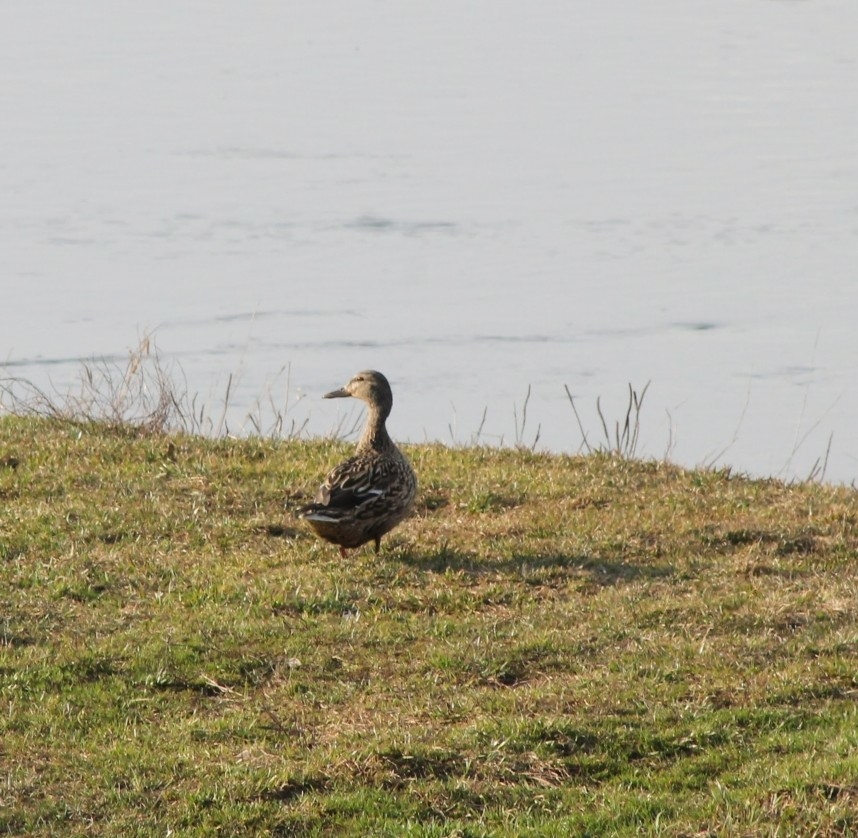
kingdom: Animalia
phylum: Chordata
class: Aves
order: Anseriformes
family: Anatidae
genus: Anas
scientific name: Anas platyrhynchos
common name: Mallard
